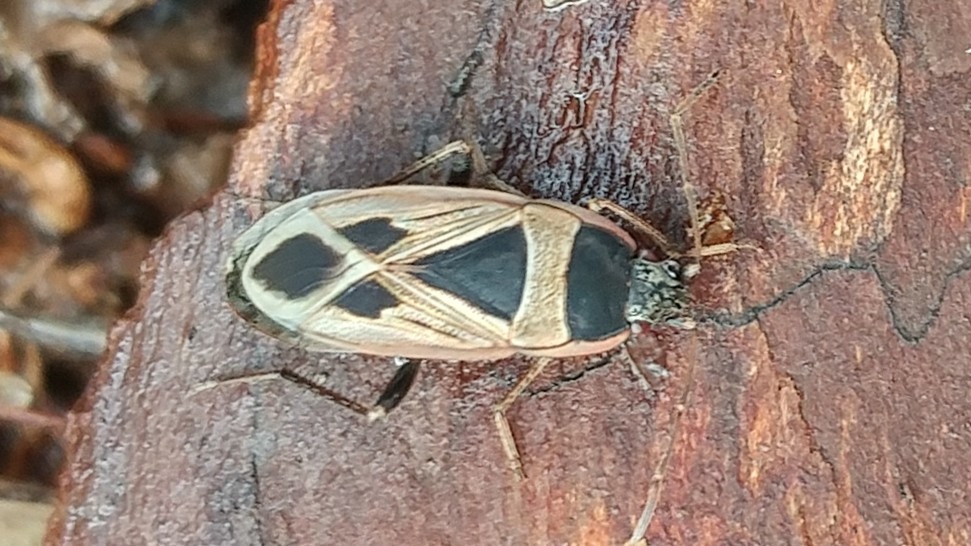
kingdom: Animalia
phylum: Arthropoda
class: Insecta
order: Hemiptera
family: Rhyparochromidae
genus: Xanthochilus
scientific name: Xanthochilus saturnius
